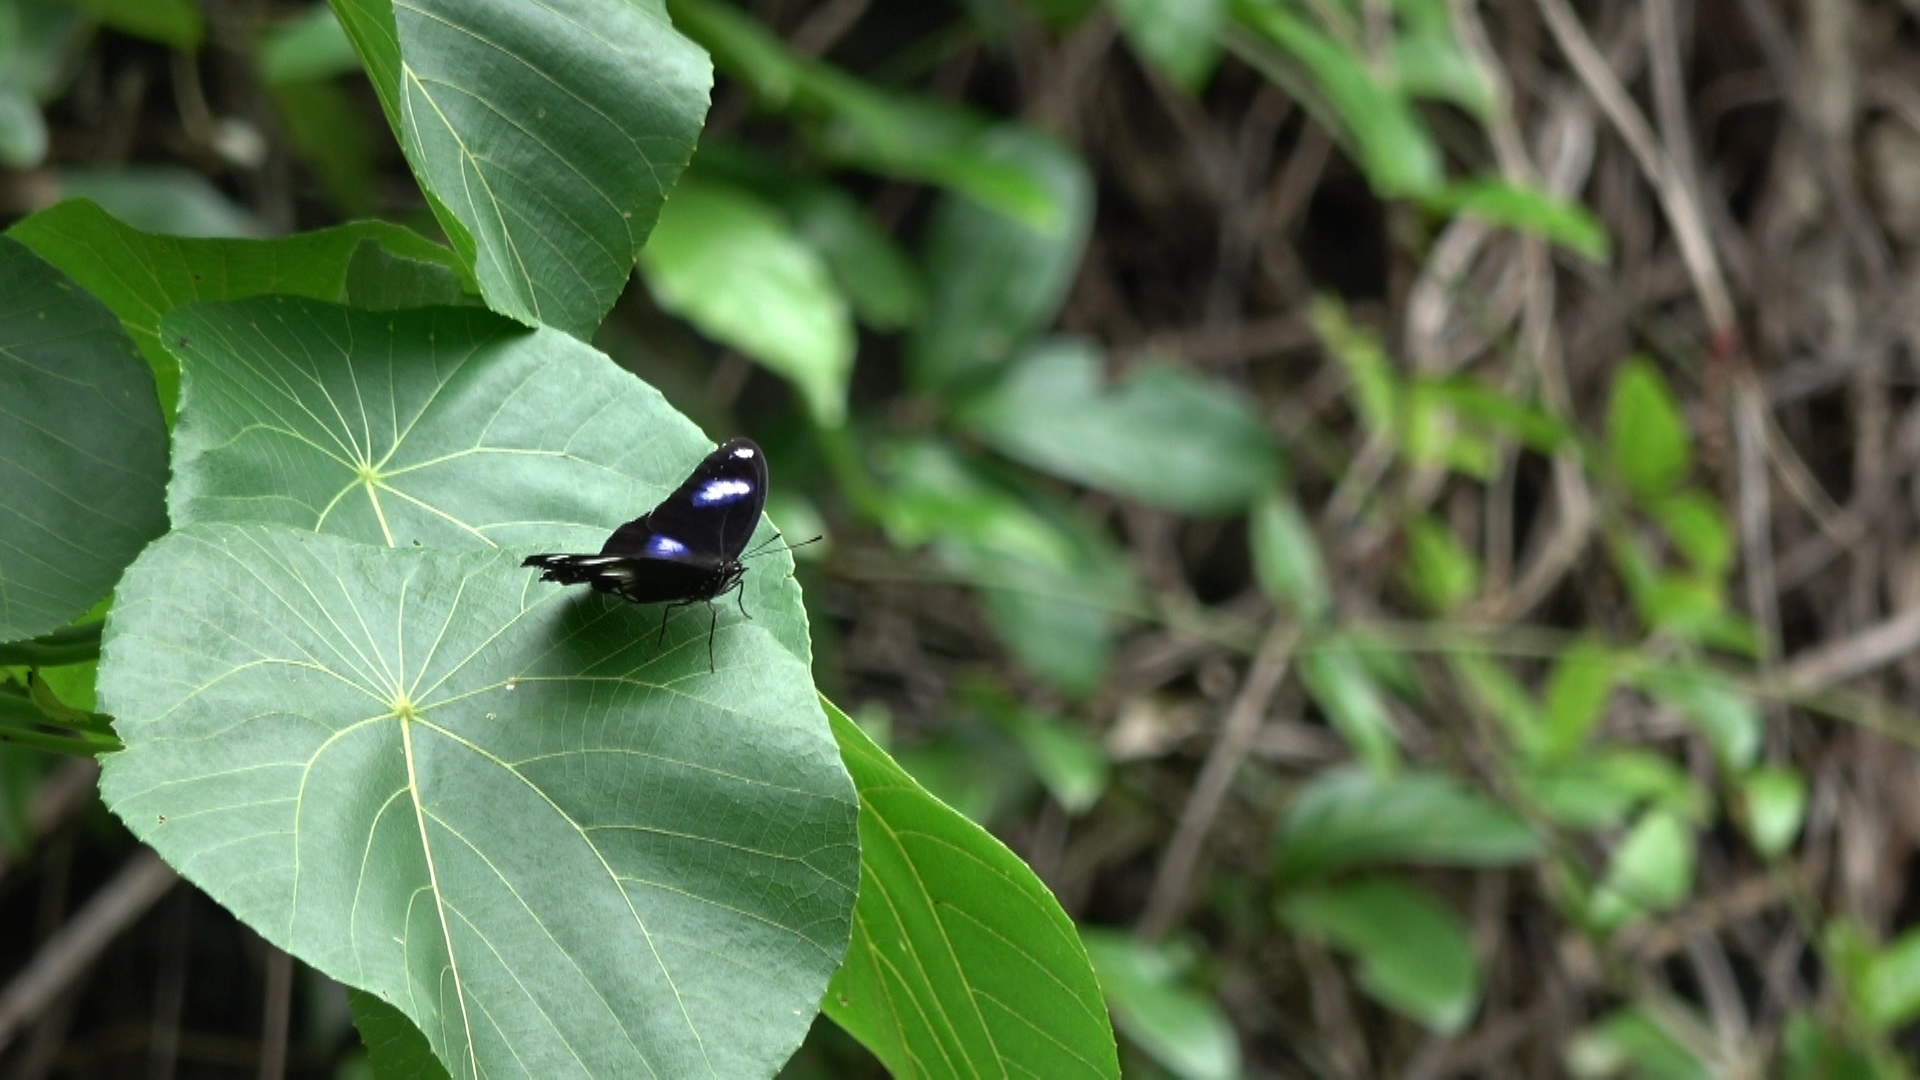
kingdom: Animalia
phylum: Arthropoda
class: Insecta
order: Lepidoptera
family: Nymphalidae
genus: Hypolimnas
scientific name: Hypolimnas bolina
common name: Great eggfly
